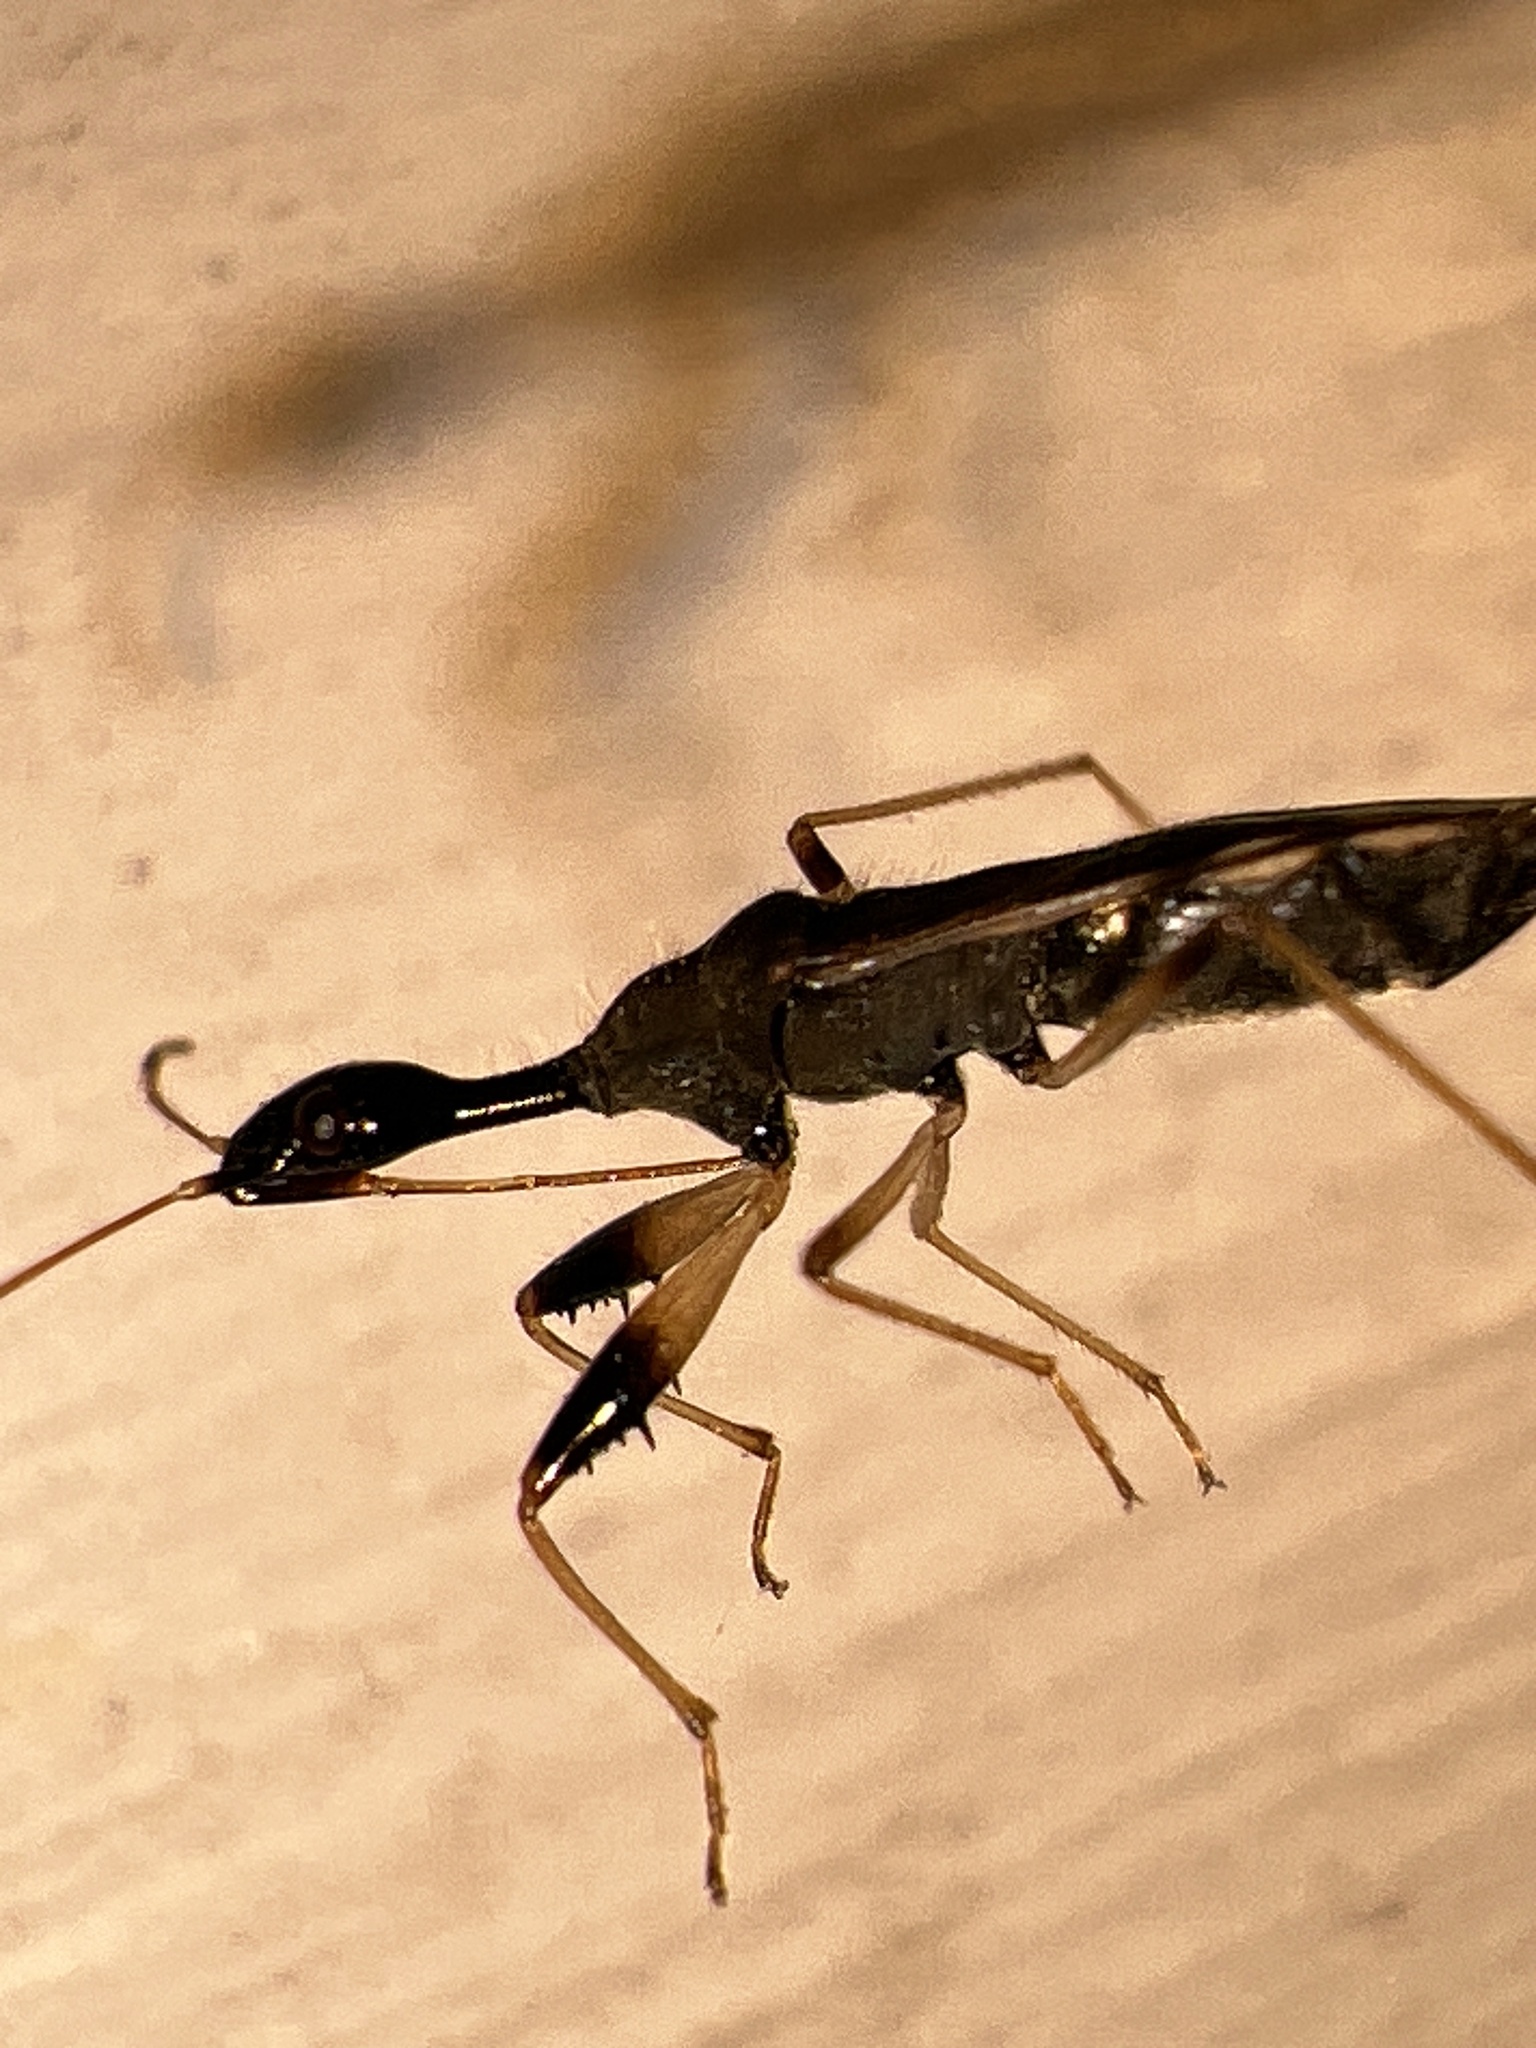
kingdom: Animalia
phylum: Arthropoda
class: Insecta
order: Hemiptera
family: Rhyparochromidae
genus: Myodocha
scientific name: Myodocha serripes
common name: Long-necked seed bug
